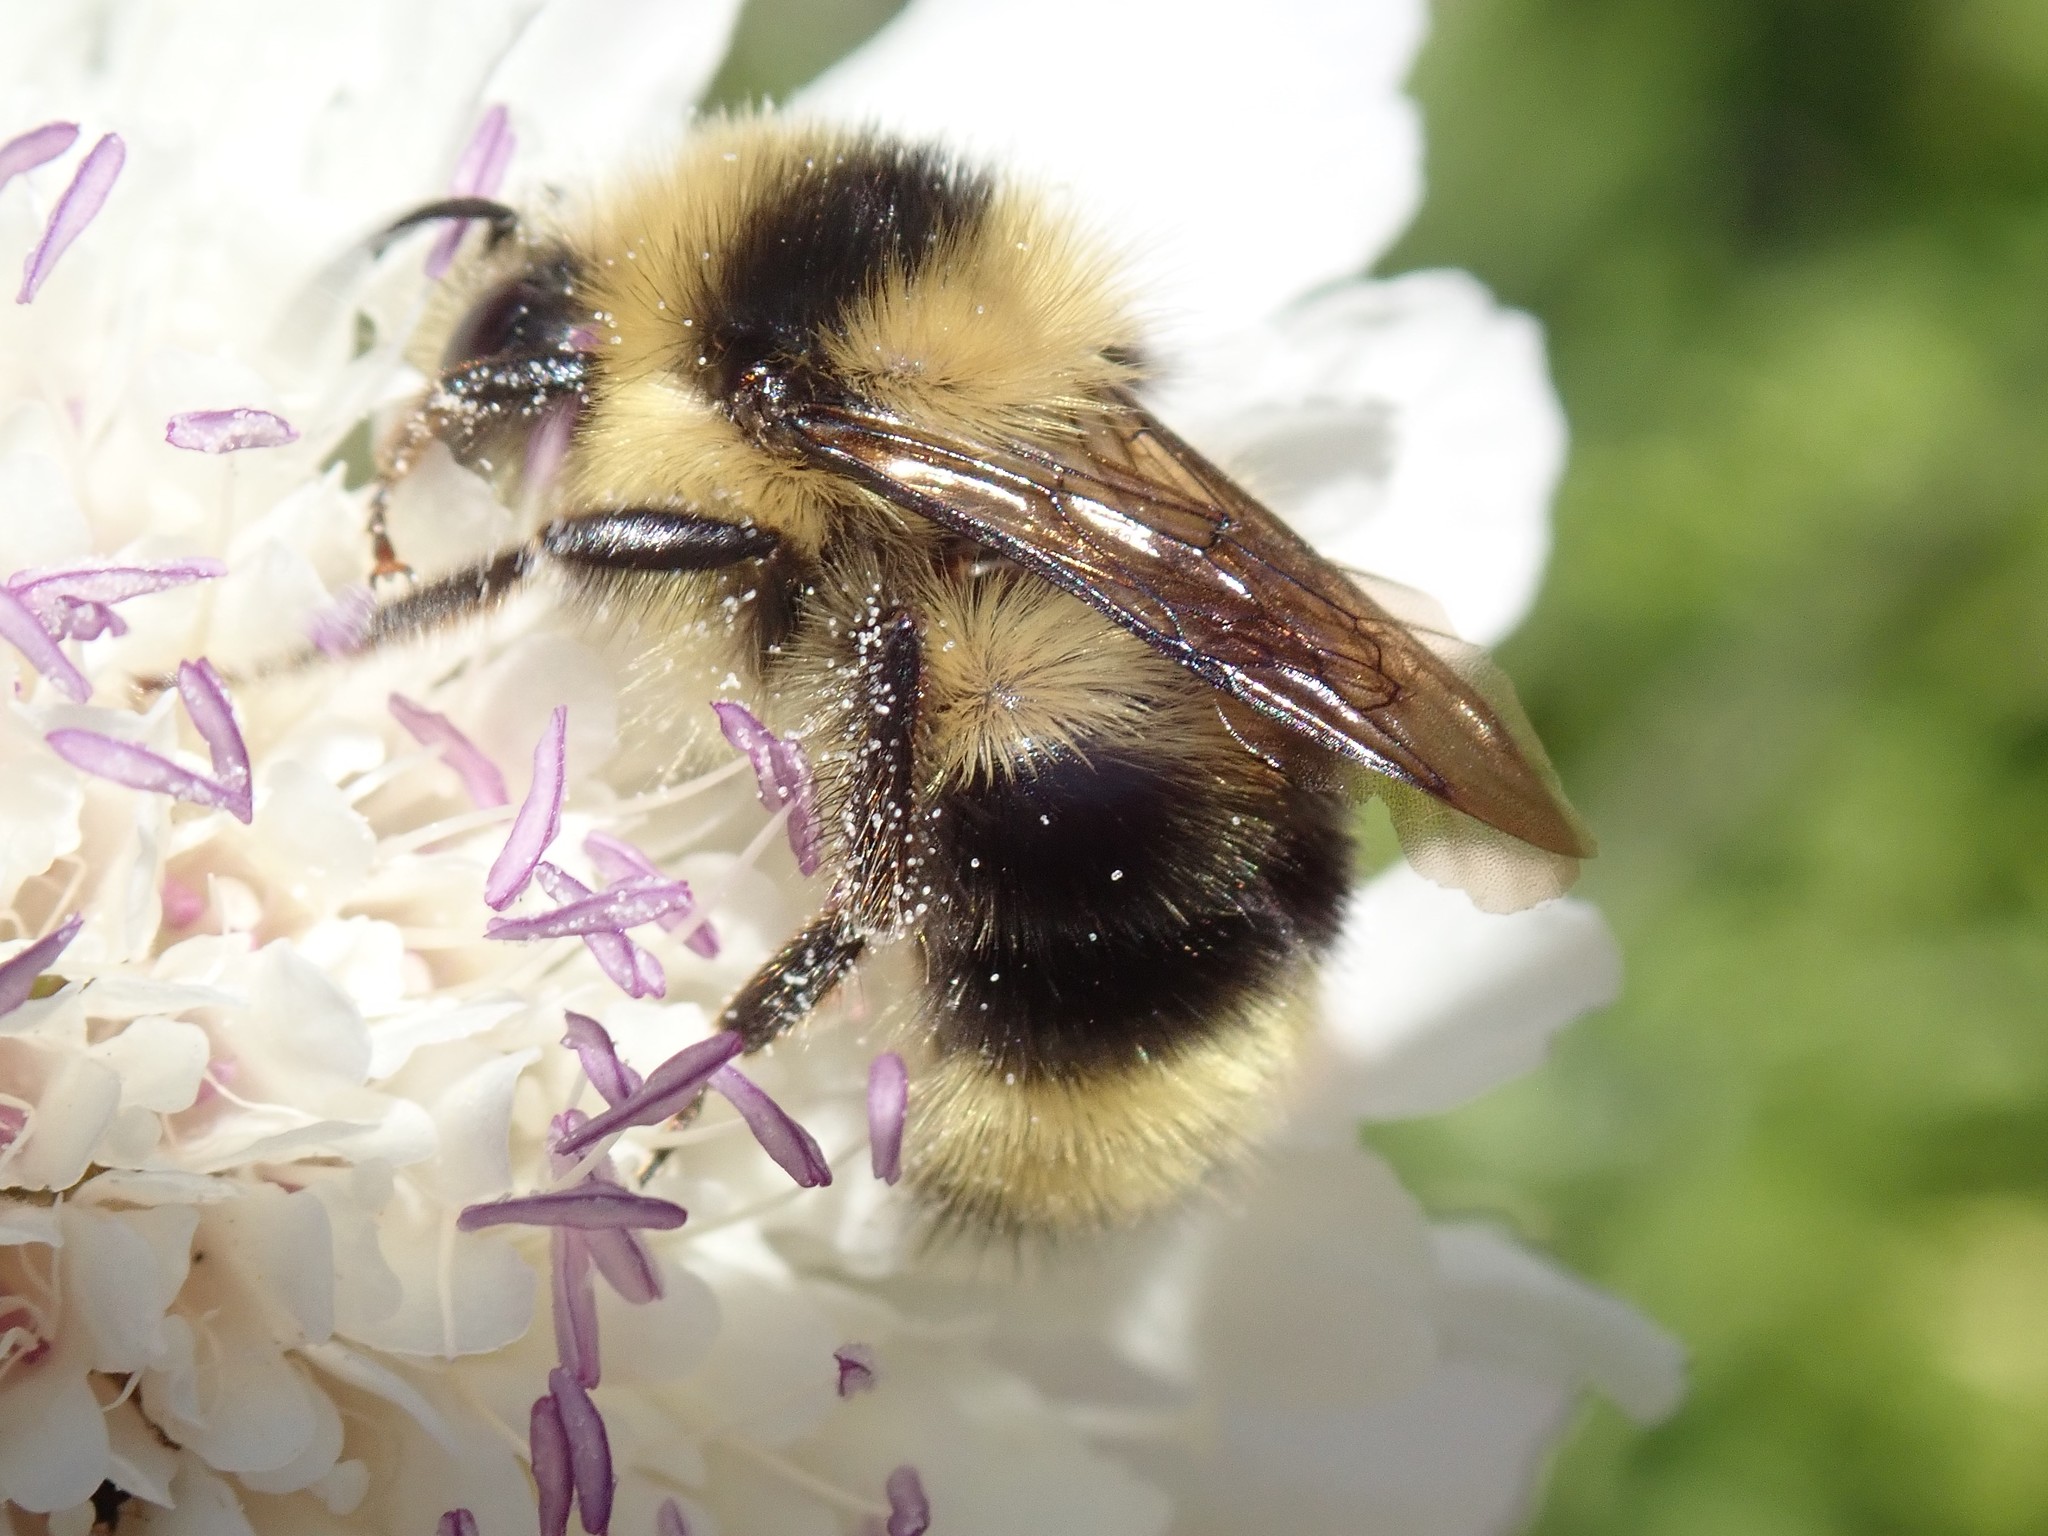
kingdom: Animalia
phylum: Arthropoda
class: Insecta
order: Hymenoptera
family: Apidae
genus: Bombus
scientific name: Bombus melanopygus
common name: Black tail bumble bee
